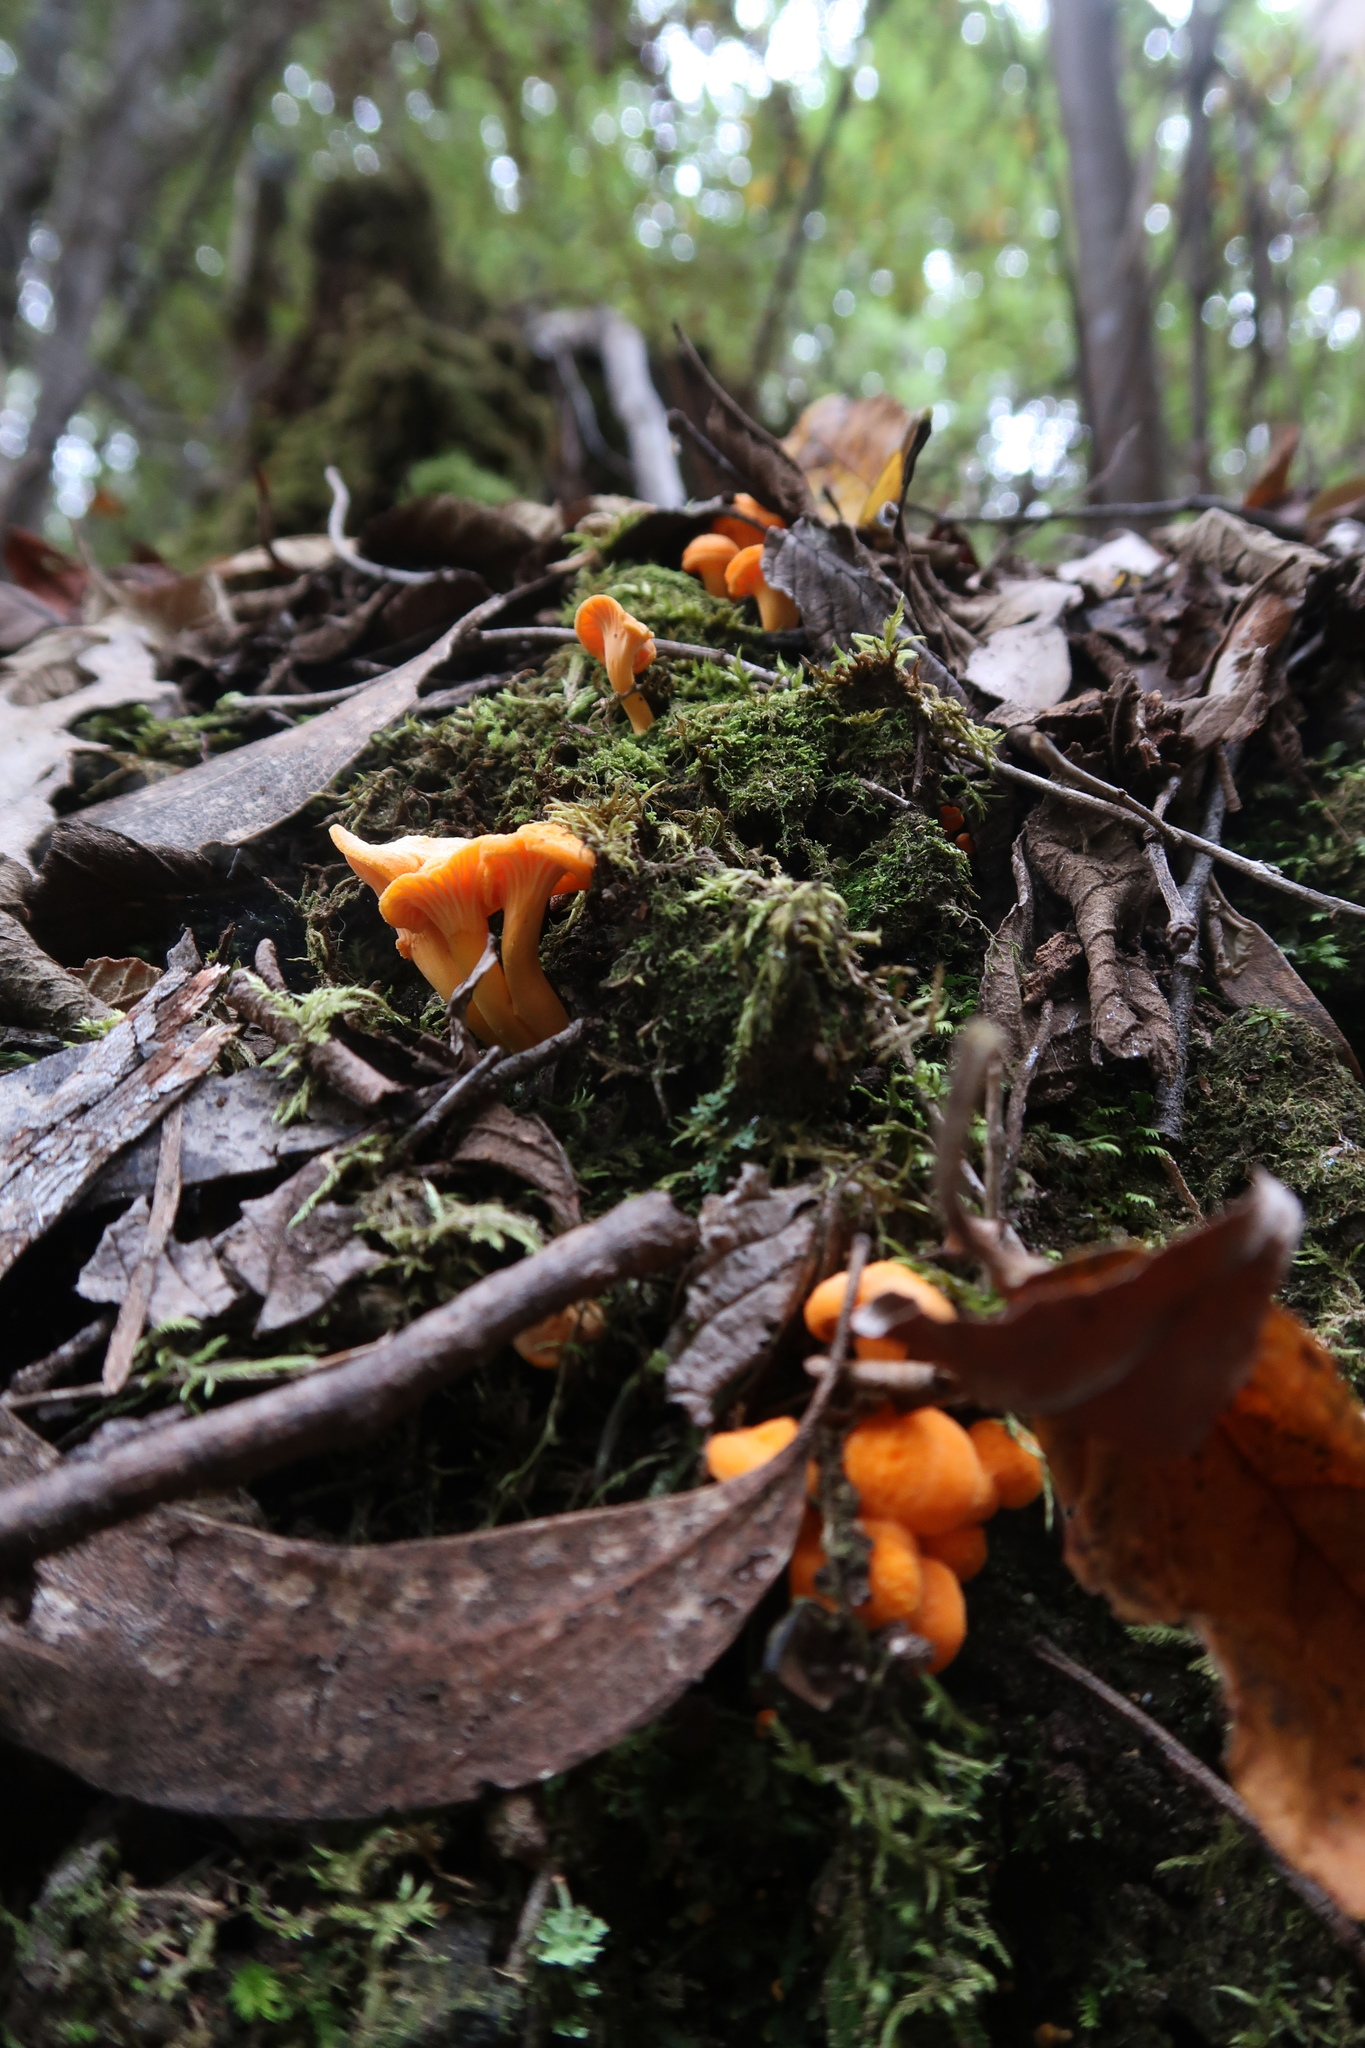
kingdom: Fungi
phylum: Basidiomycota
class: Agaricomycetes
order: Cantharellales
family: Hydnaceae
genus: Cantharellus
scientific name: Cantharellus
